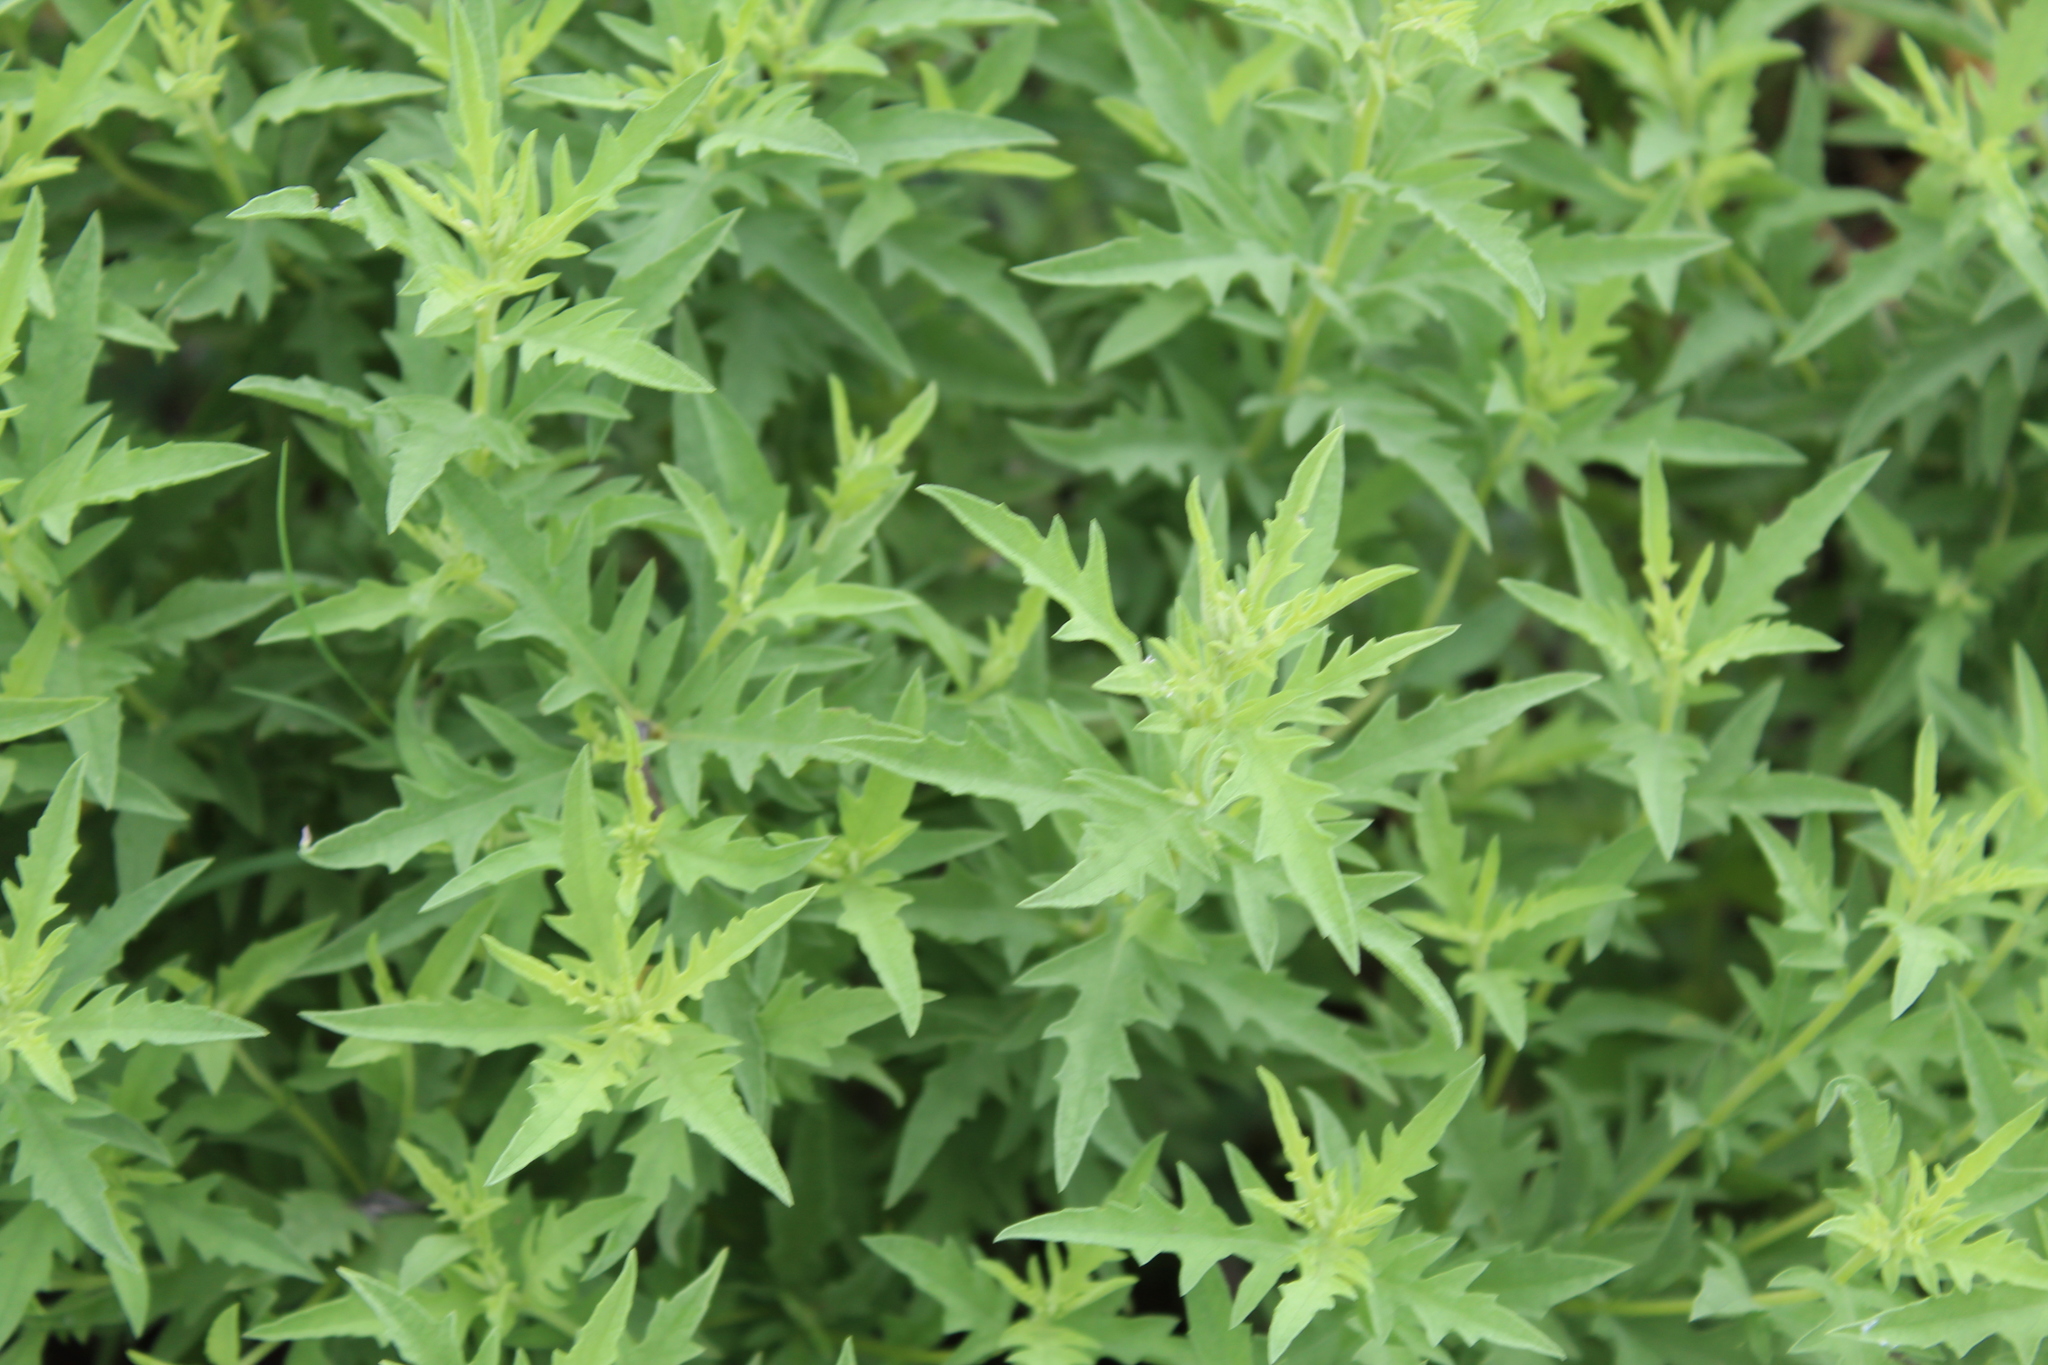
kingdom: Plantae
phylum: Tracheophyta
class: Magnoliopsida
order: Asterales
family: Asteraceae
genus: Ambrosia
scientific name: Ambrosia psilostachya
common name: Perennial ragweed
